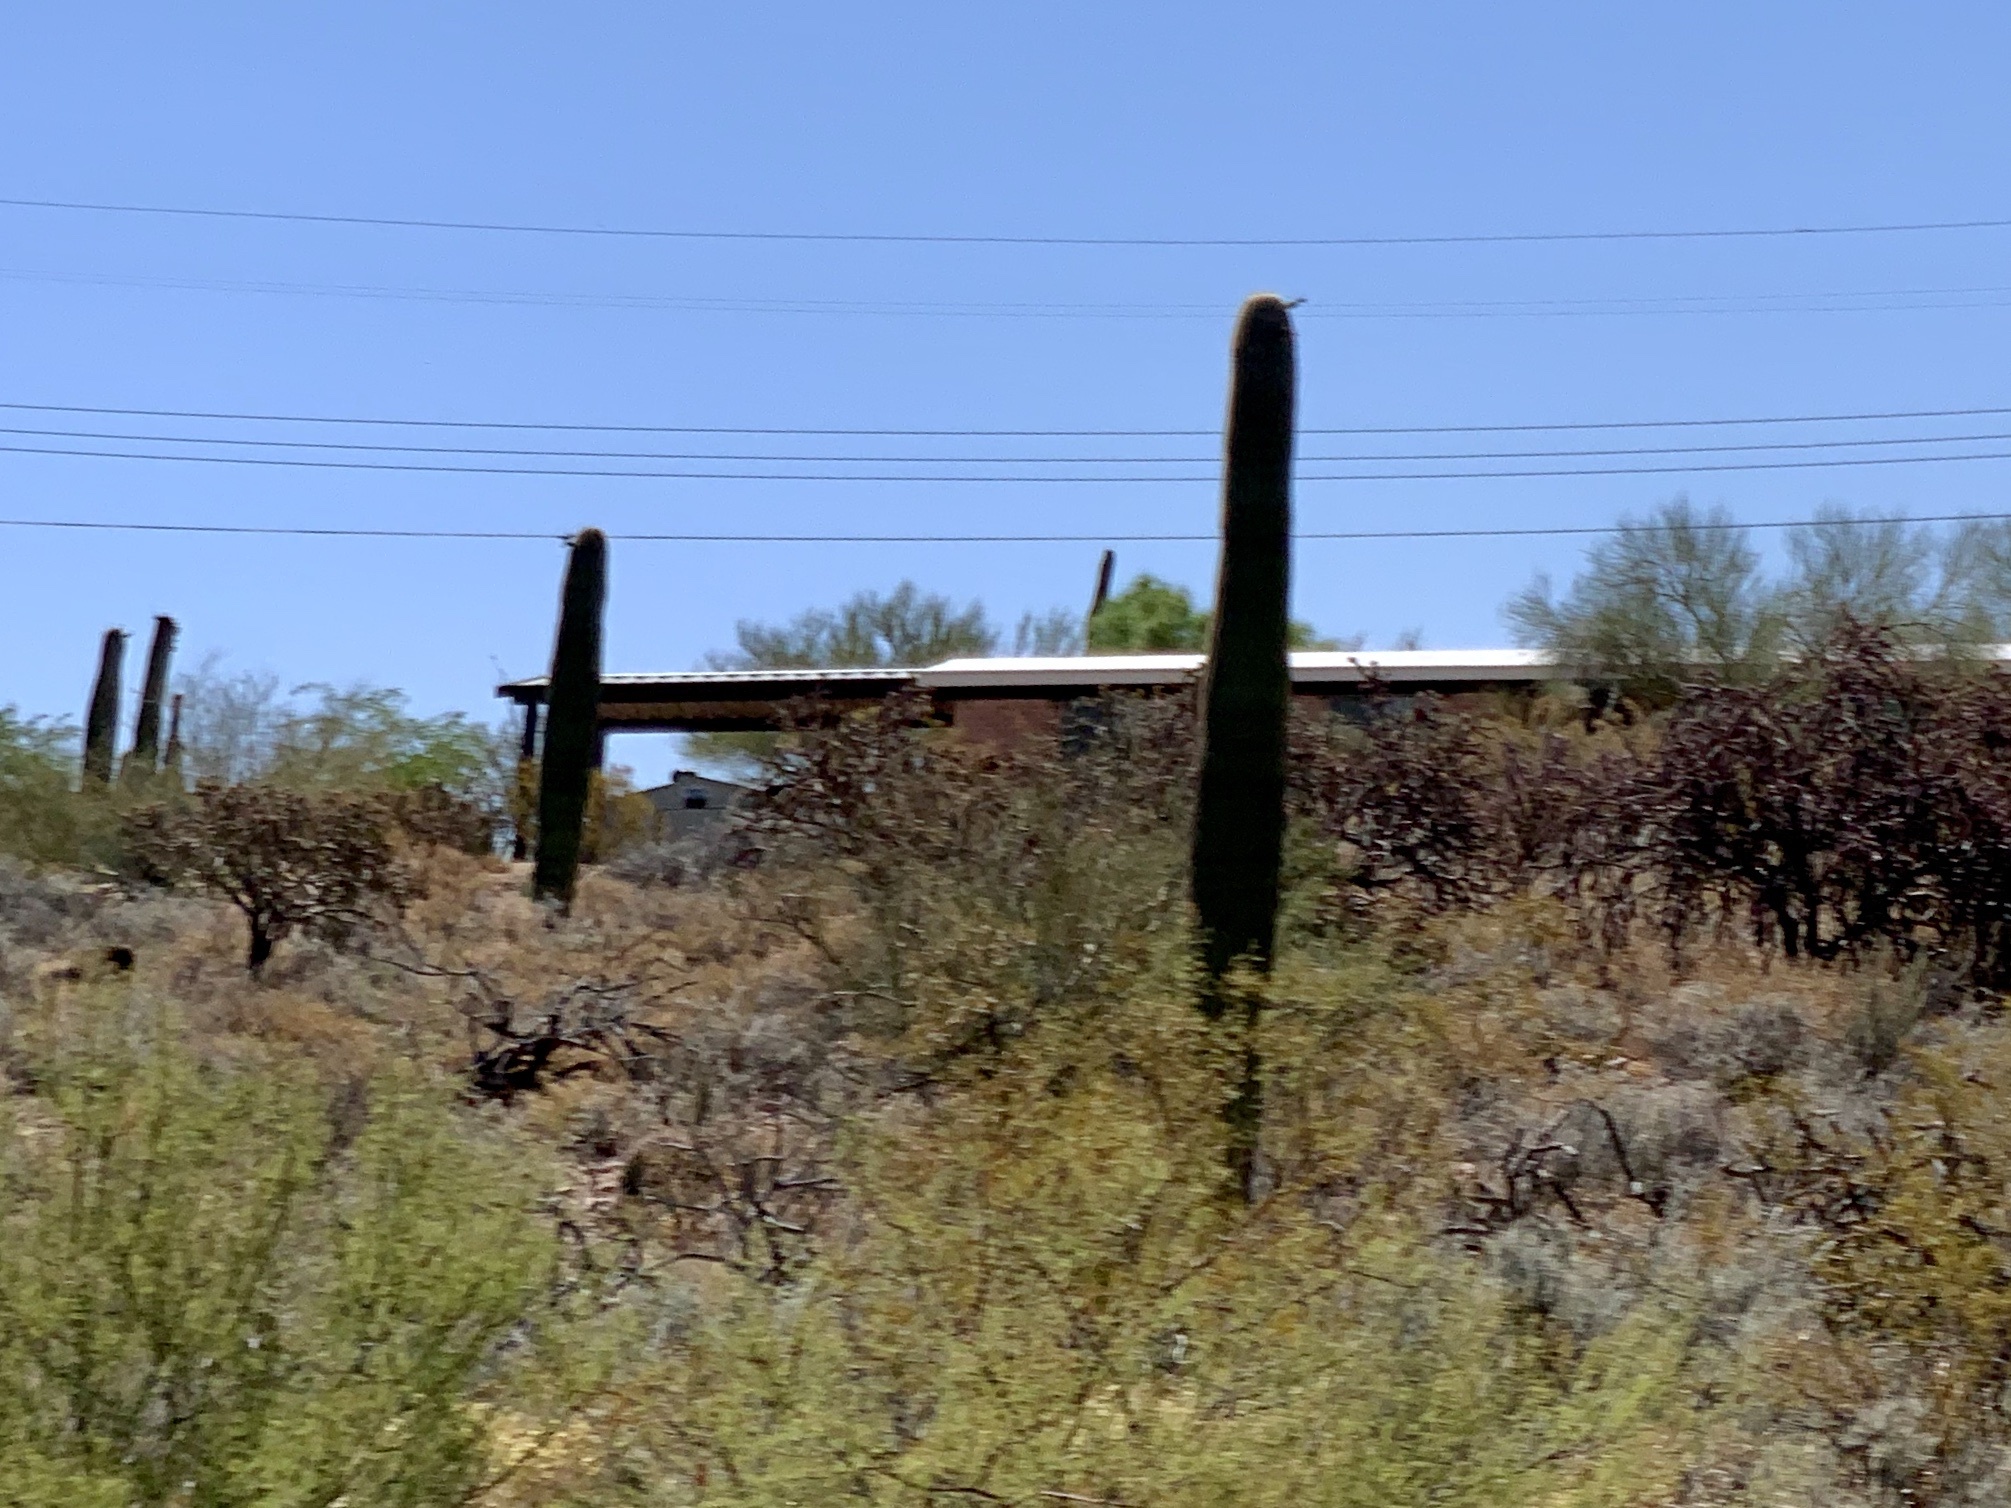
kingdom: Plantae
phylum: Tracheophyta
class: Magnoliopsida
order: Caryophyllales
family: Cactaceae
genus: Carnegiea
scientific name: Carnegiea gigantea
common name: Saguaro
